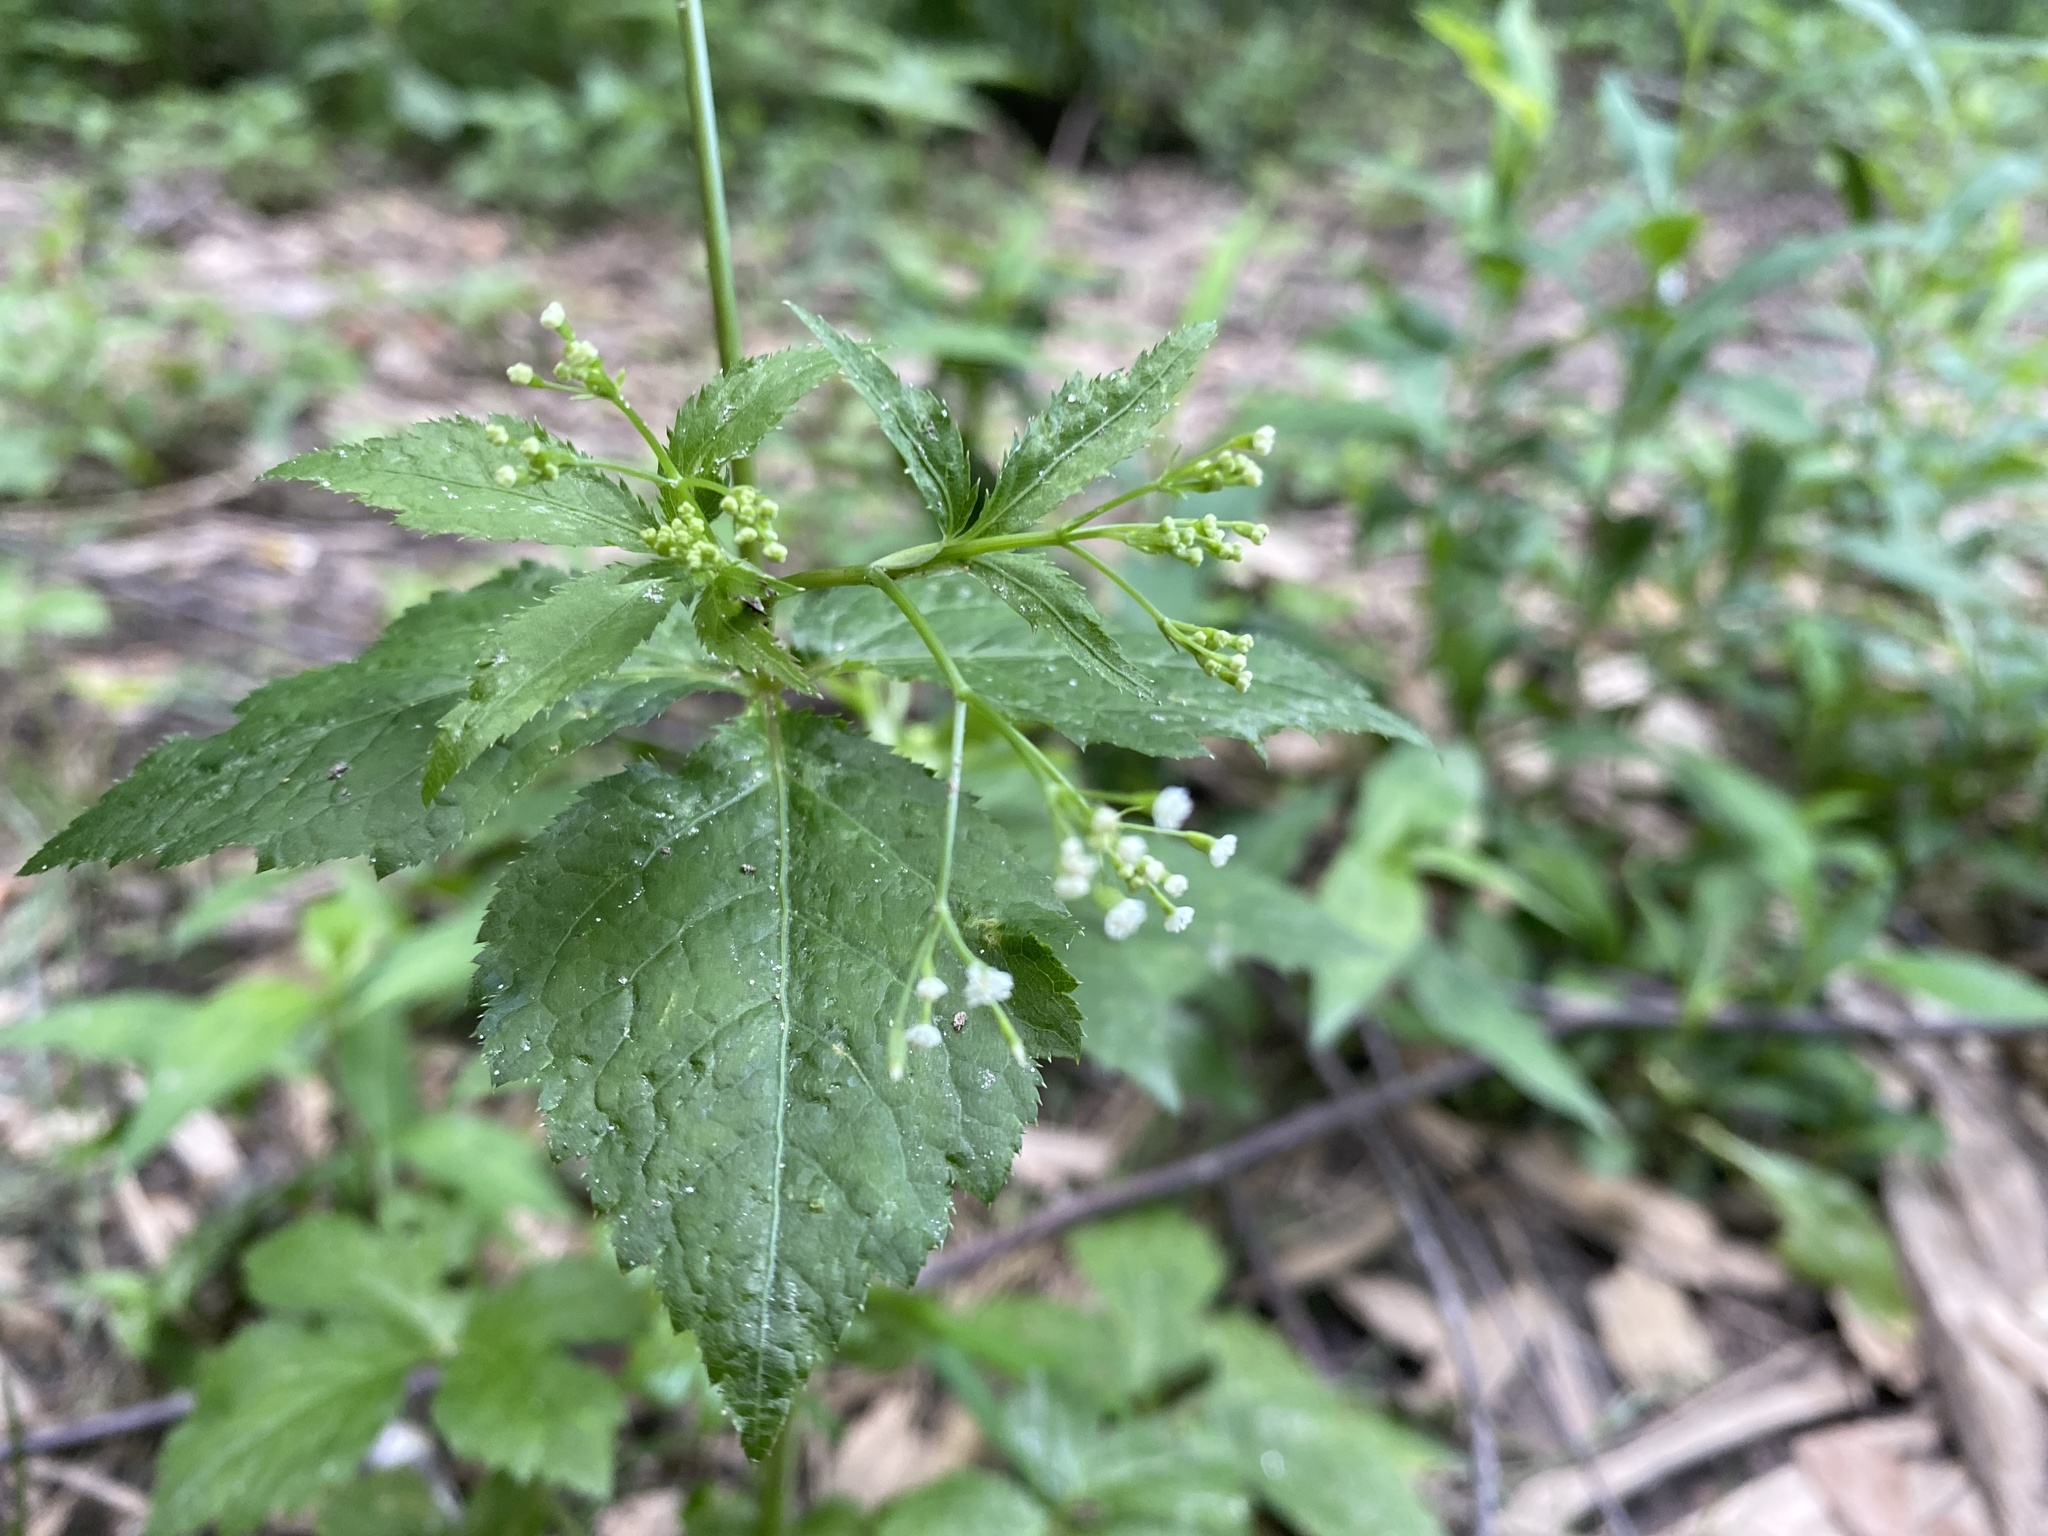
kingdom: Plantae
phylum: Tracheophyta
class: Magnoliopsida
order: Apiales
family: Apiaceae
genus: Cryptotaenia
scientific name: Cryptotaenia canadensis
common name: Honewort
